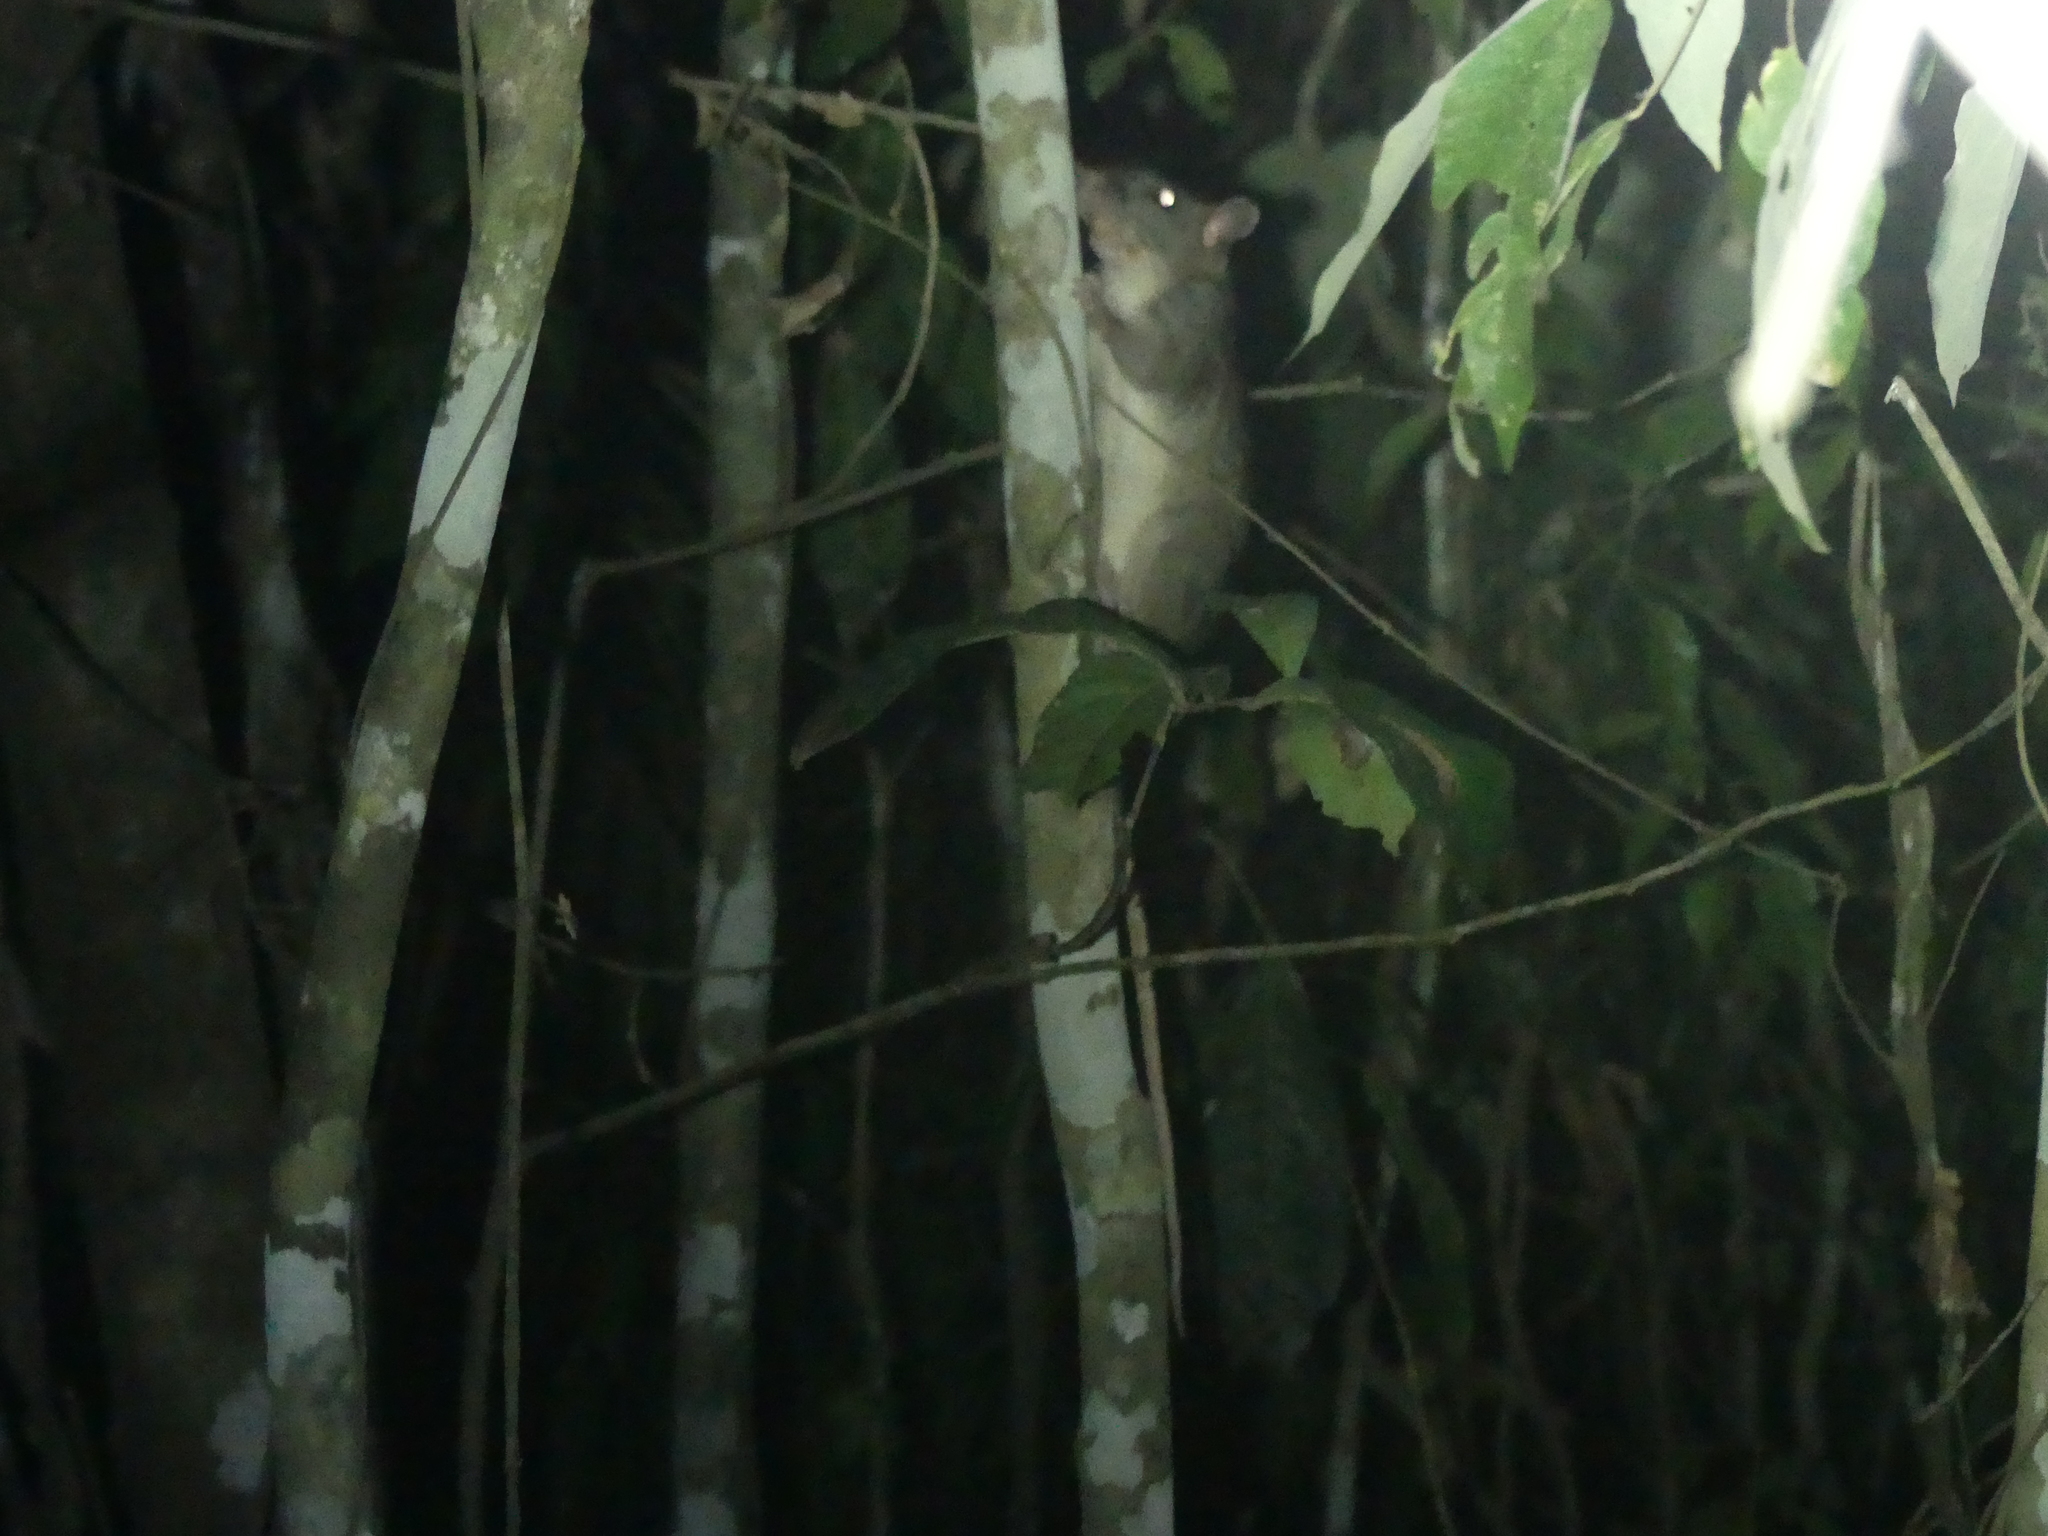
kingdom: Animalia
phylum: Chordata
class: Mammalia
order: Rodentia
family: Muridae
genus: Uromys
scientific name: Uromys caudimaculatus
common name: Giant white-tailed uromys
